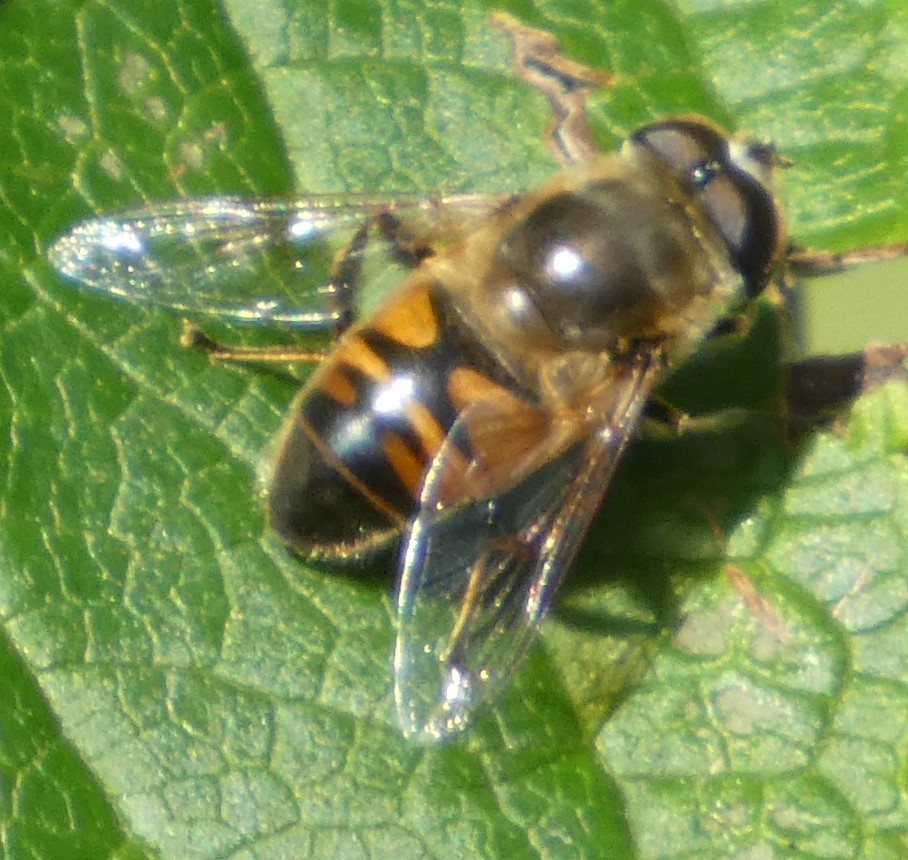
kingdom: Animalia
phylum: Arthropoda
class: Insecta
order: Diptera
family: Syrphidae
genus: Eristalis
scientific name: Eristalis tenax
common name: Drone fly
